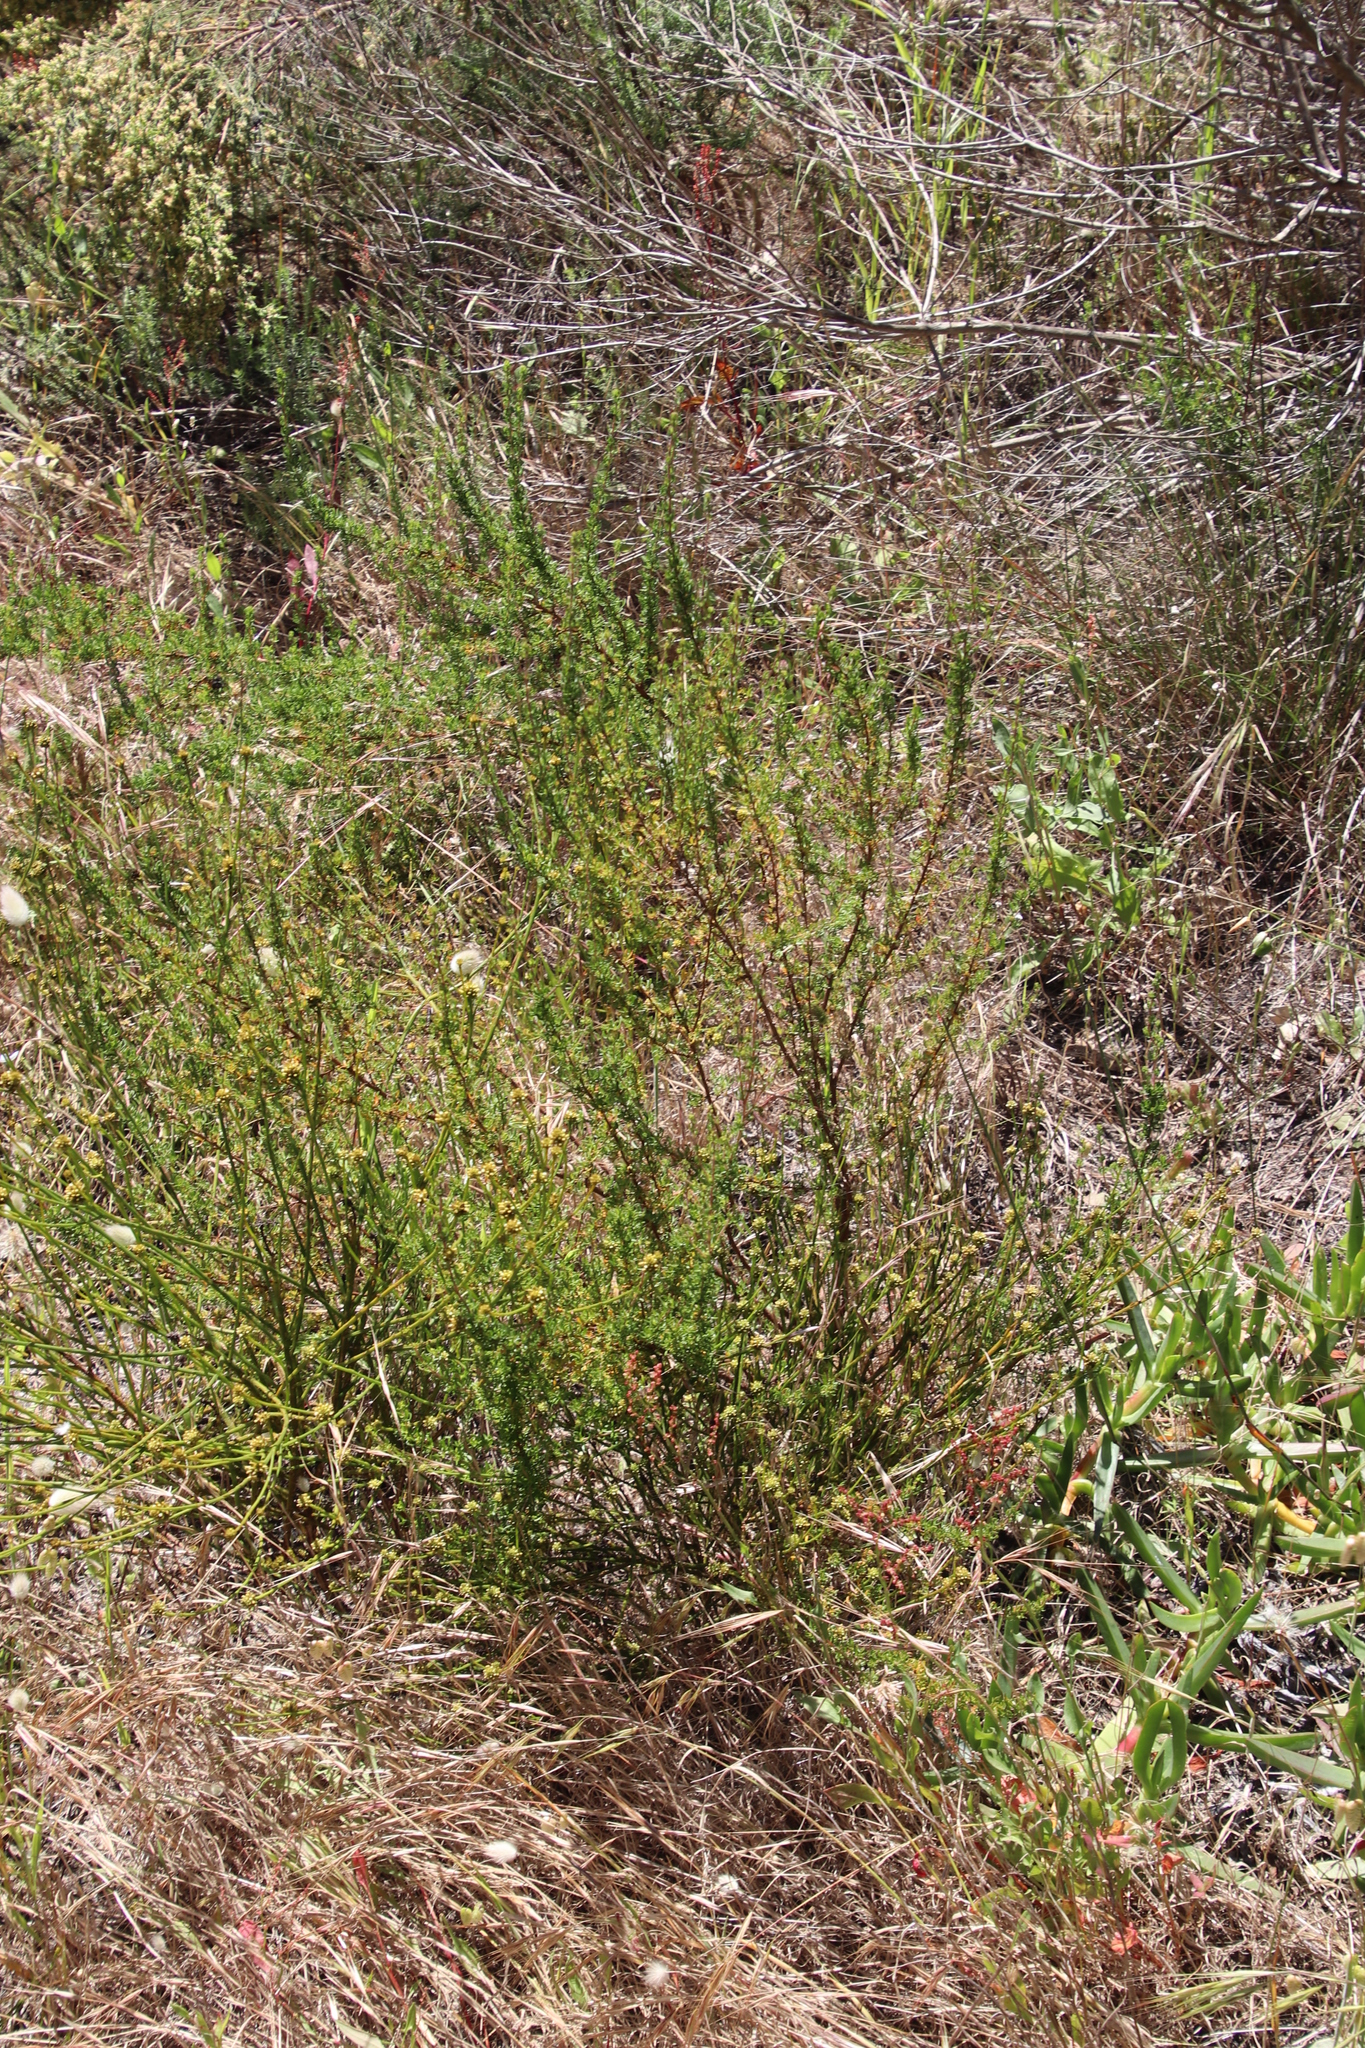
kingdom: Plantae
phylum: Tracheophyta
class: Magnoliopsida
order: Rosales
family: Rosaceae
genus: Cliffortia
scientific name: Cliffortia falcata
